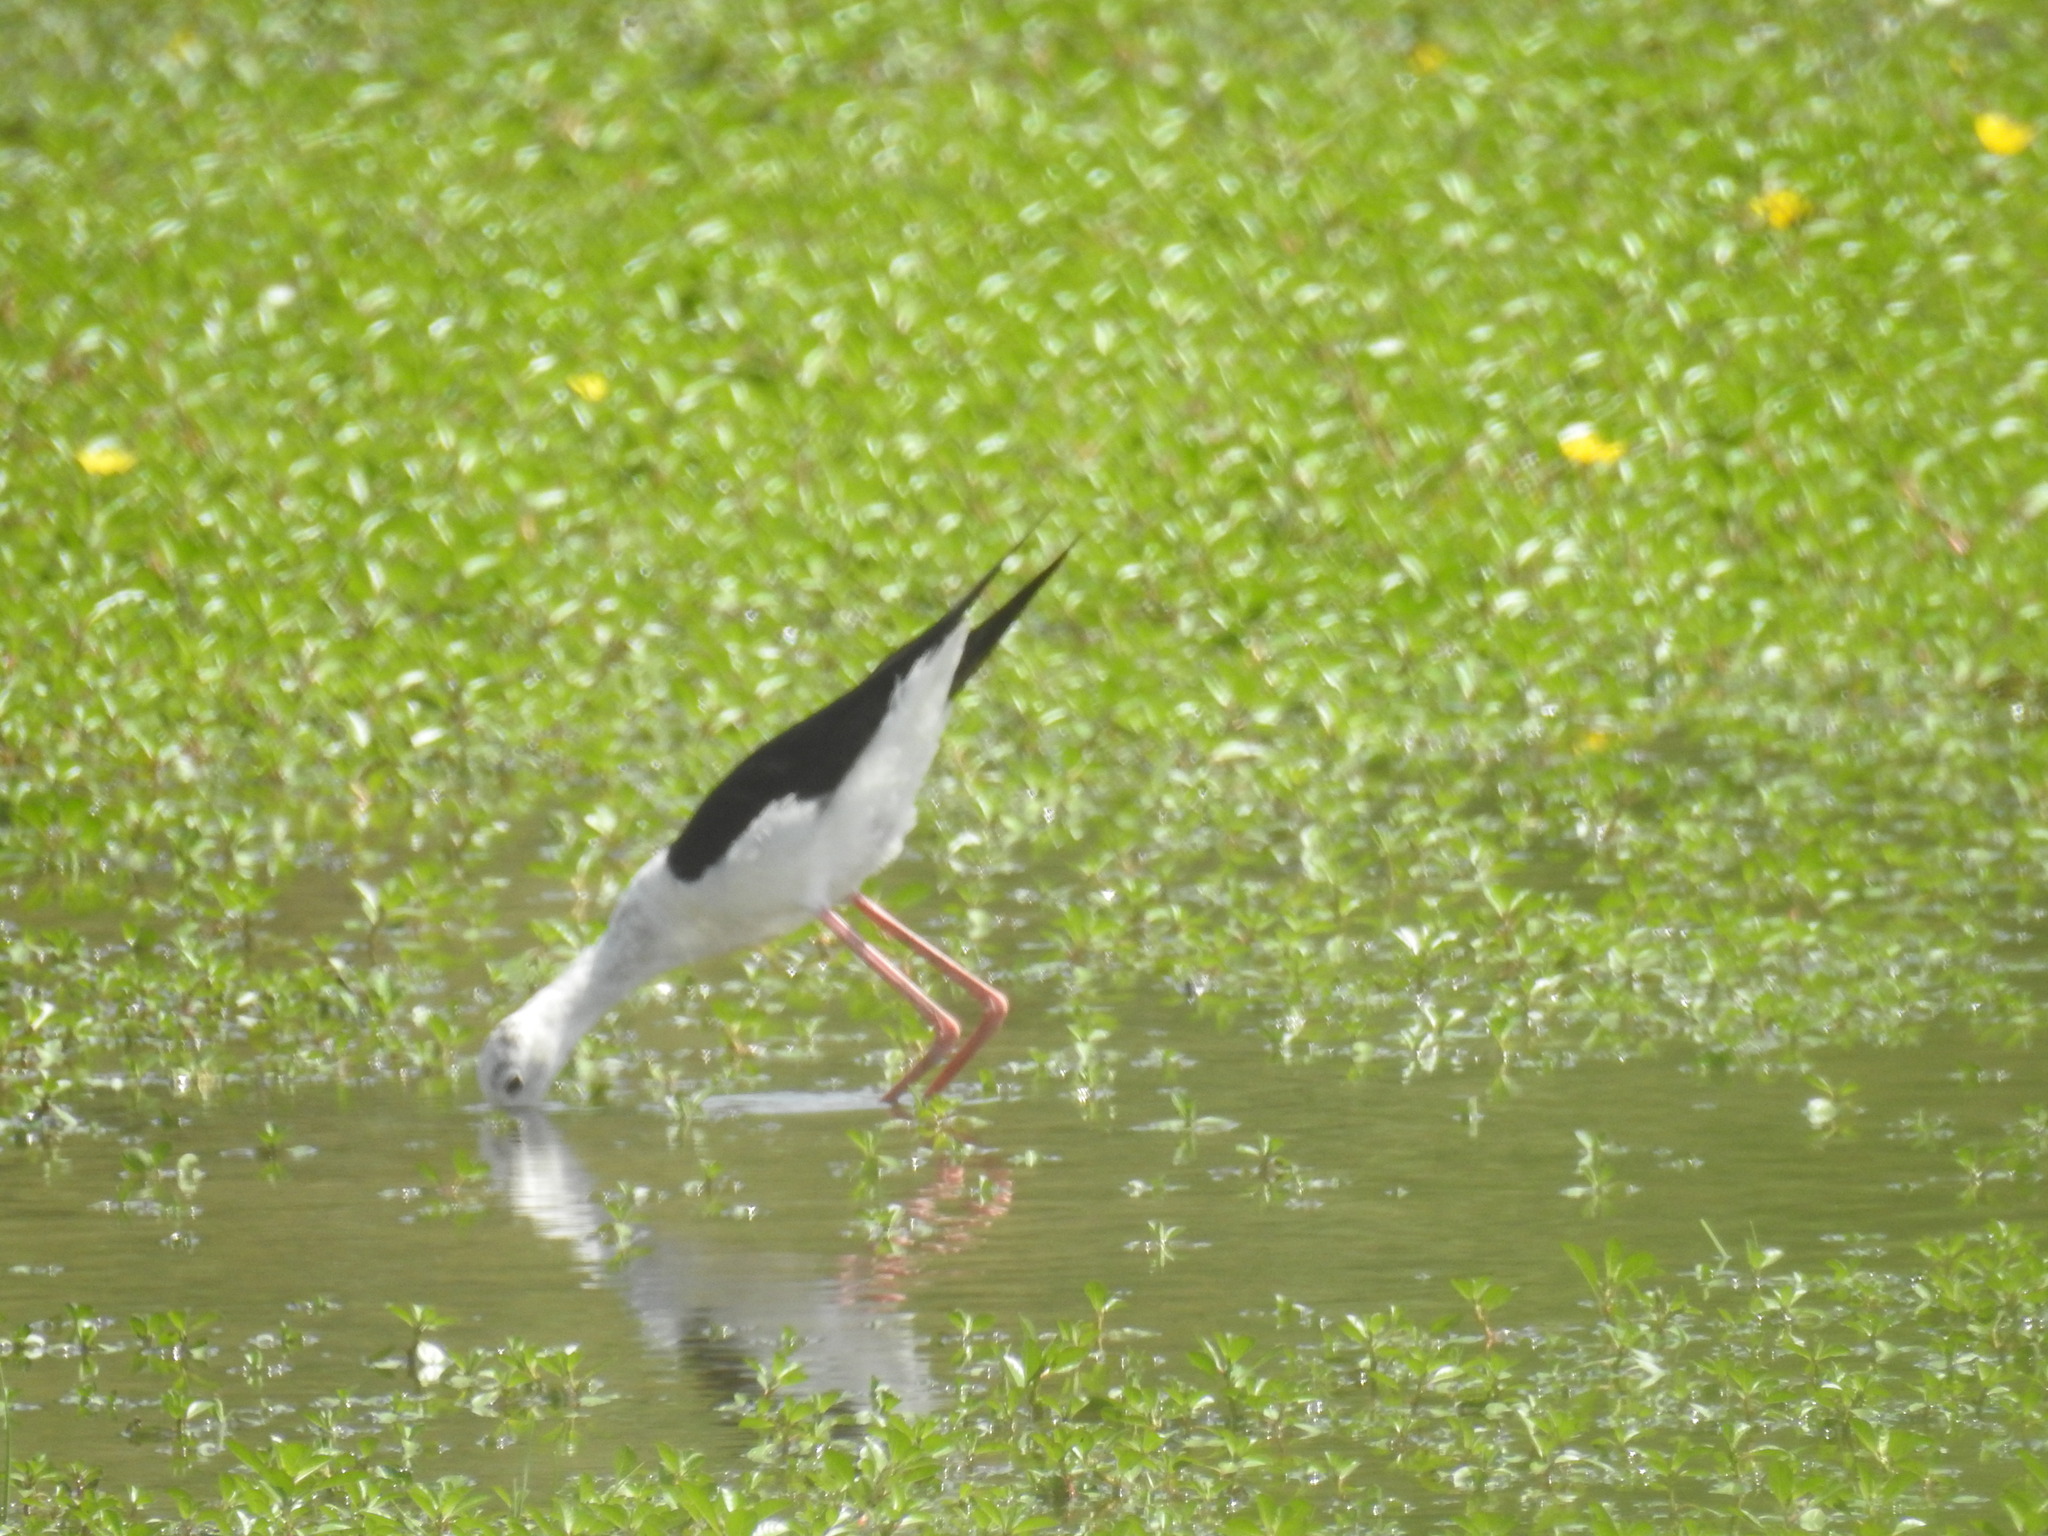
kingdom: Animalia
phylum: Chordata
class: Aves
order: Charadriiformes
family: Recurvirostridae
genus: Himantopus
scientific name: Himantopus himantopus
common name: Black-winged stilt
